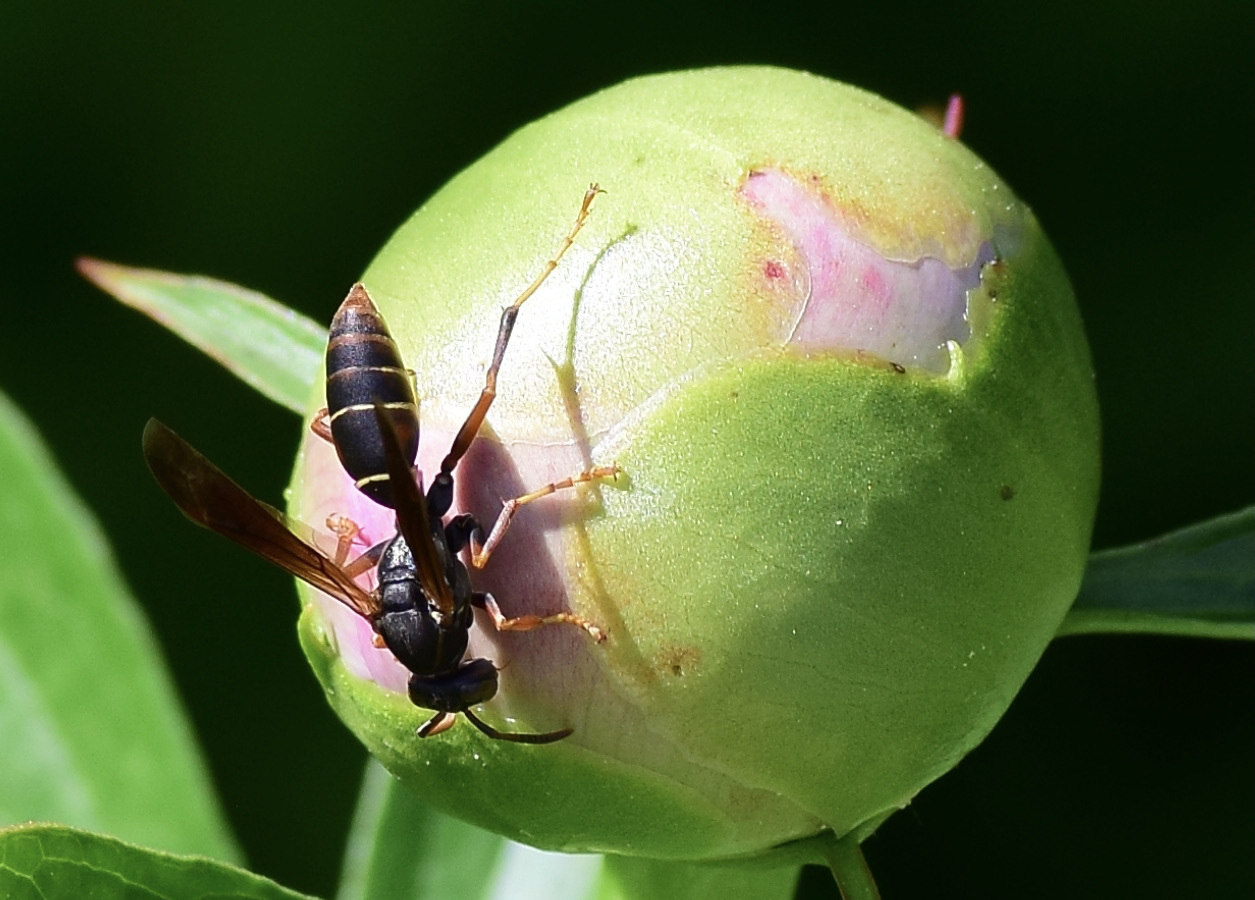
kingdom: Animalia
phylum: Arthropoda
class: Insecta
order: Hymenoptera
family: Eumenidae
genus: Polistes
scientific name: Polistes fuscatus
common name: Dark paper wasp
